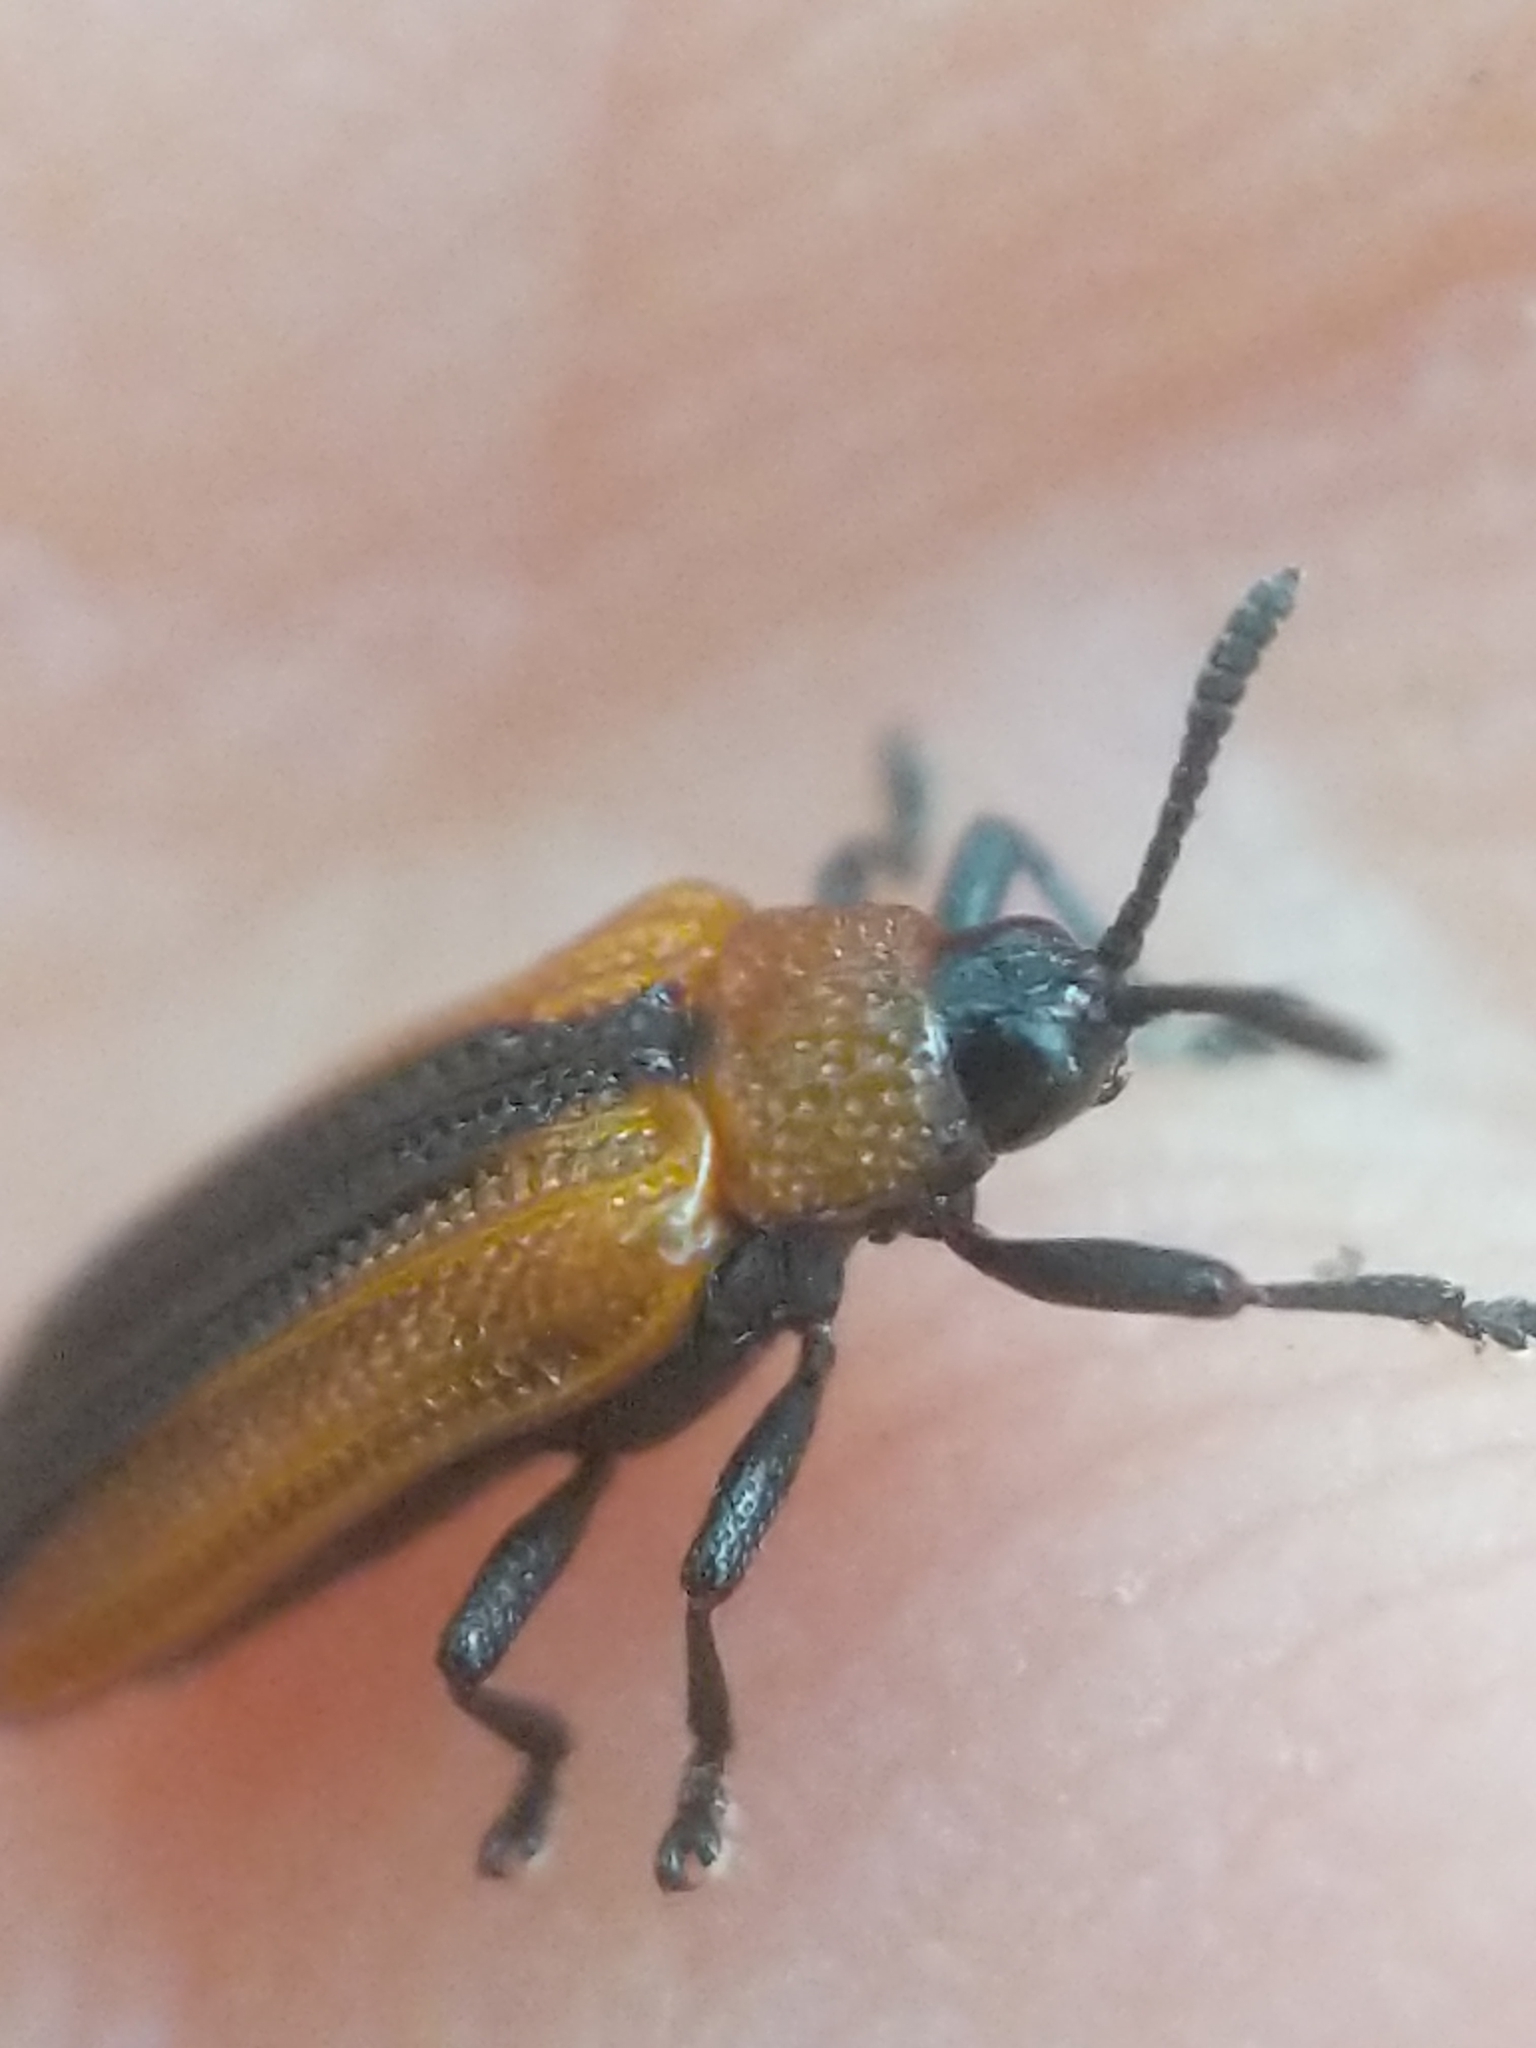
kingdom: Animalia
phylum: Arthropoda
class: Insecta
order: Coleoptera
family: Chrysomelidae
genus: Odontota
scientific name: Odontota dorsalis
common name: Locust leaf-miner beetle
